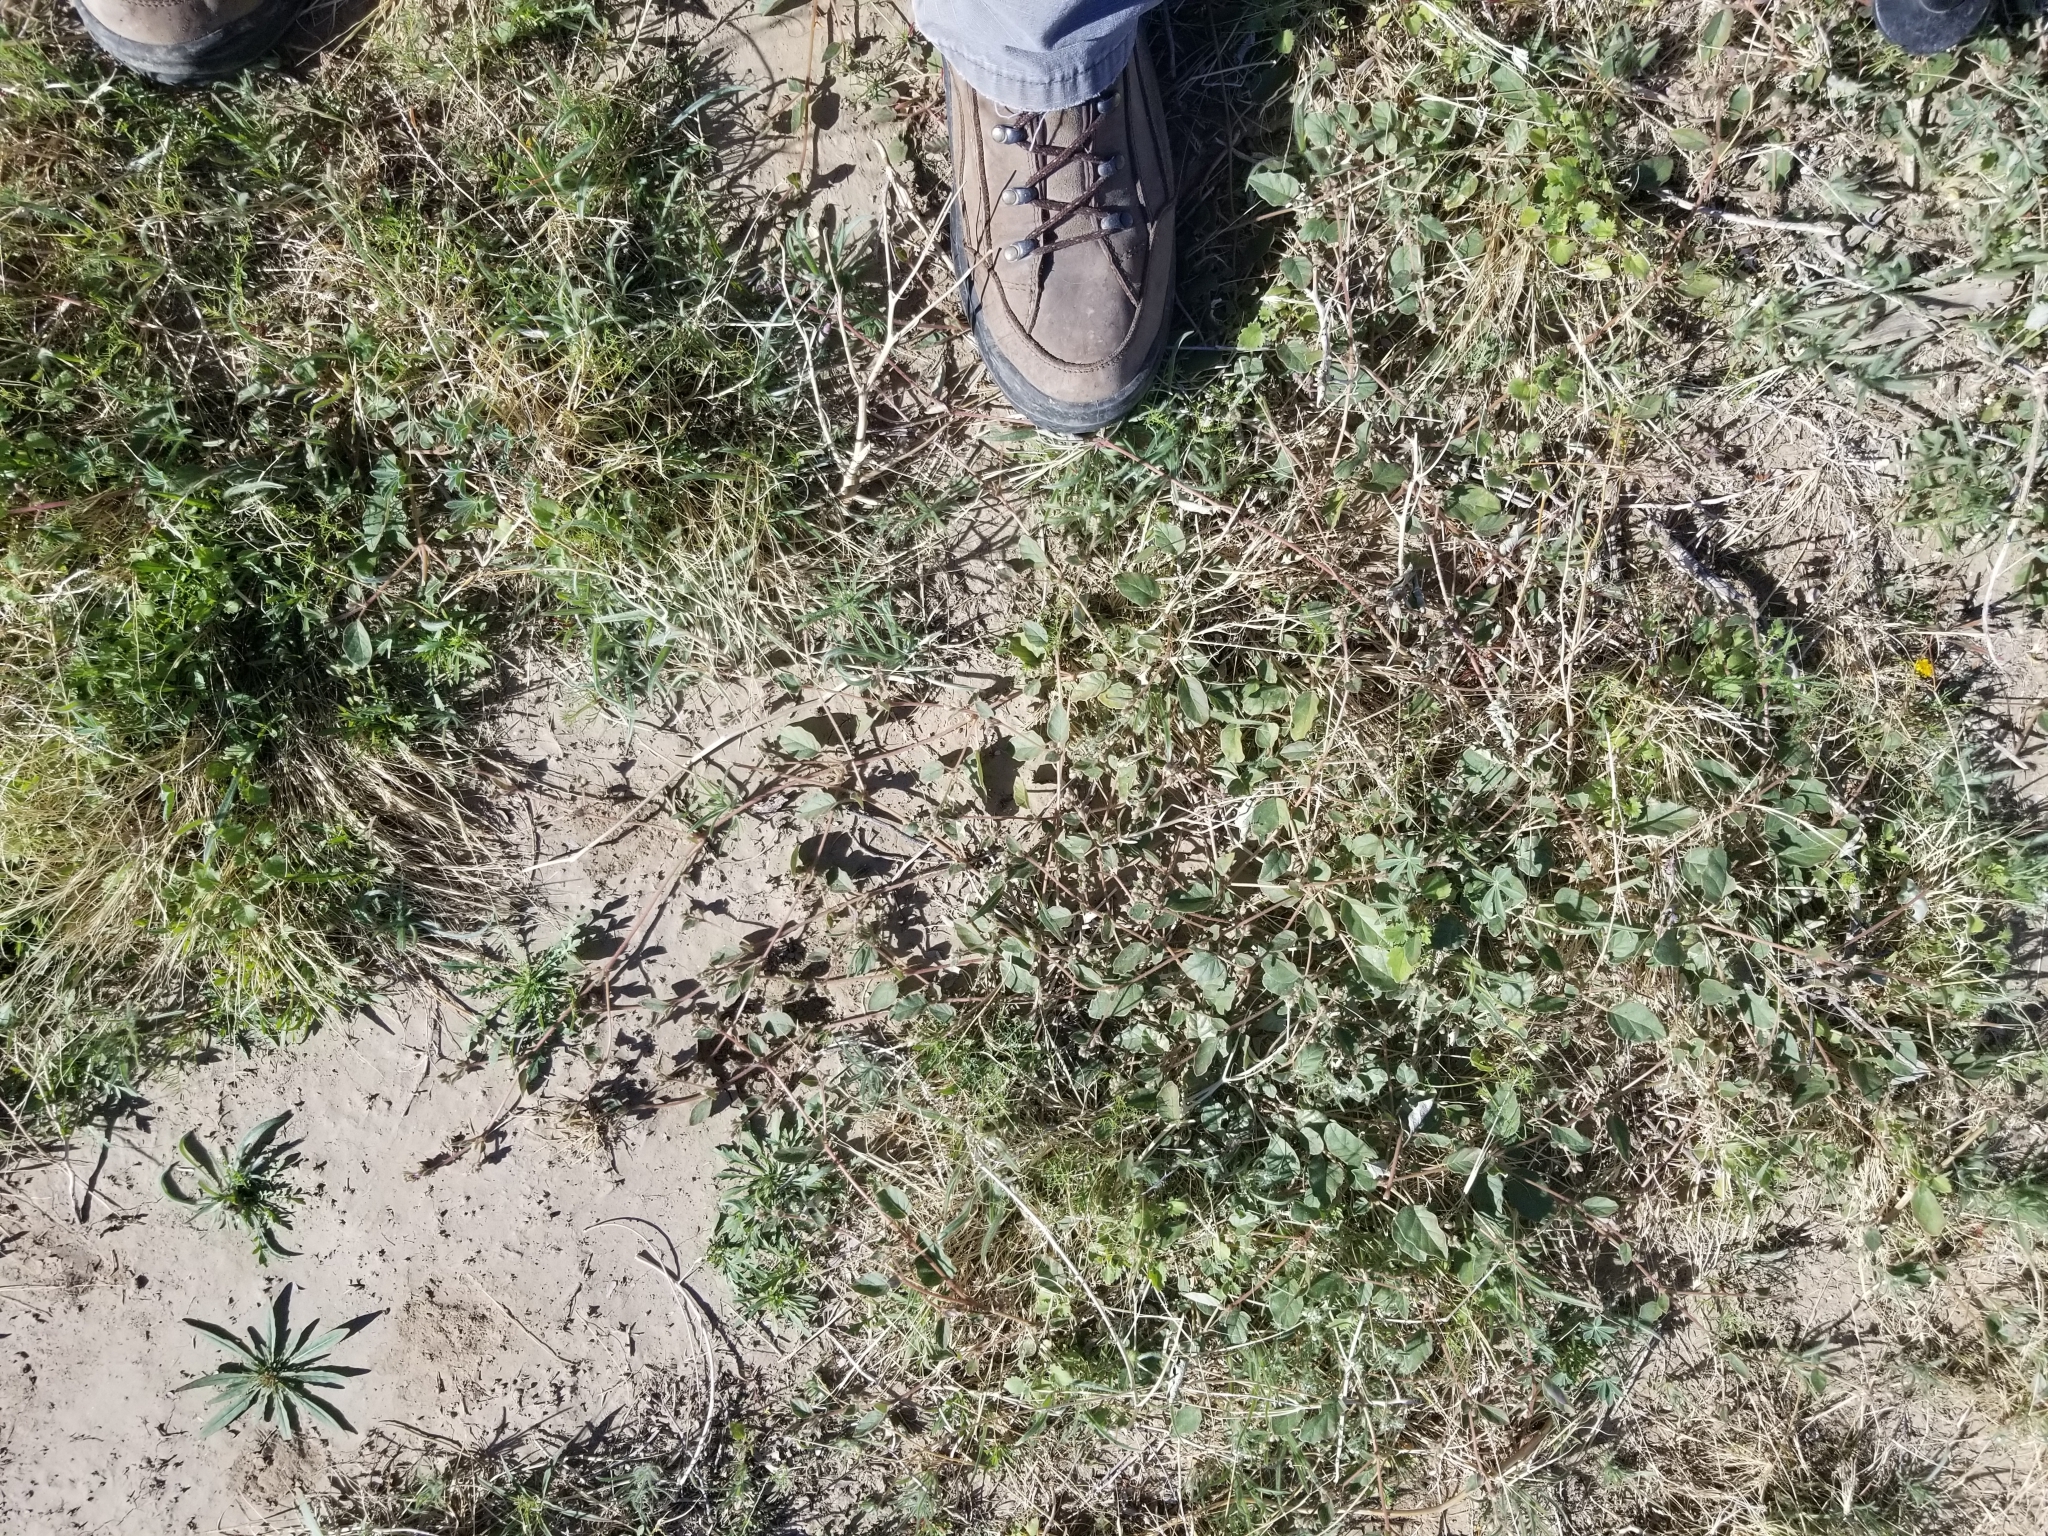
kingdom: Plantae
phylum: Tracheophyta
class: Magnoliopsida
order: Caryophyllales
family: Nyctaginaceae
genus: Allionia
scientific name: Allionia incarnata
